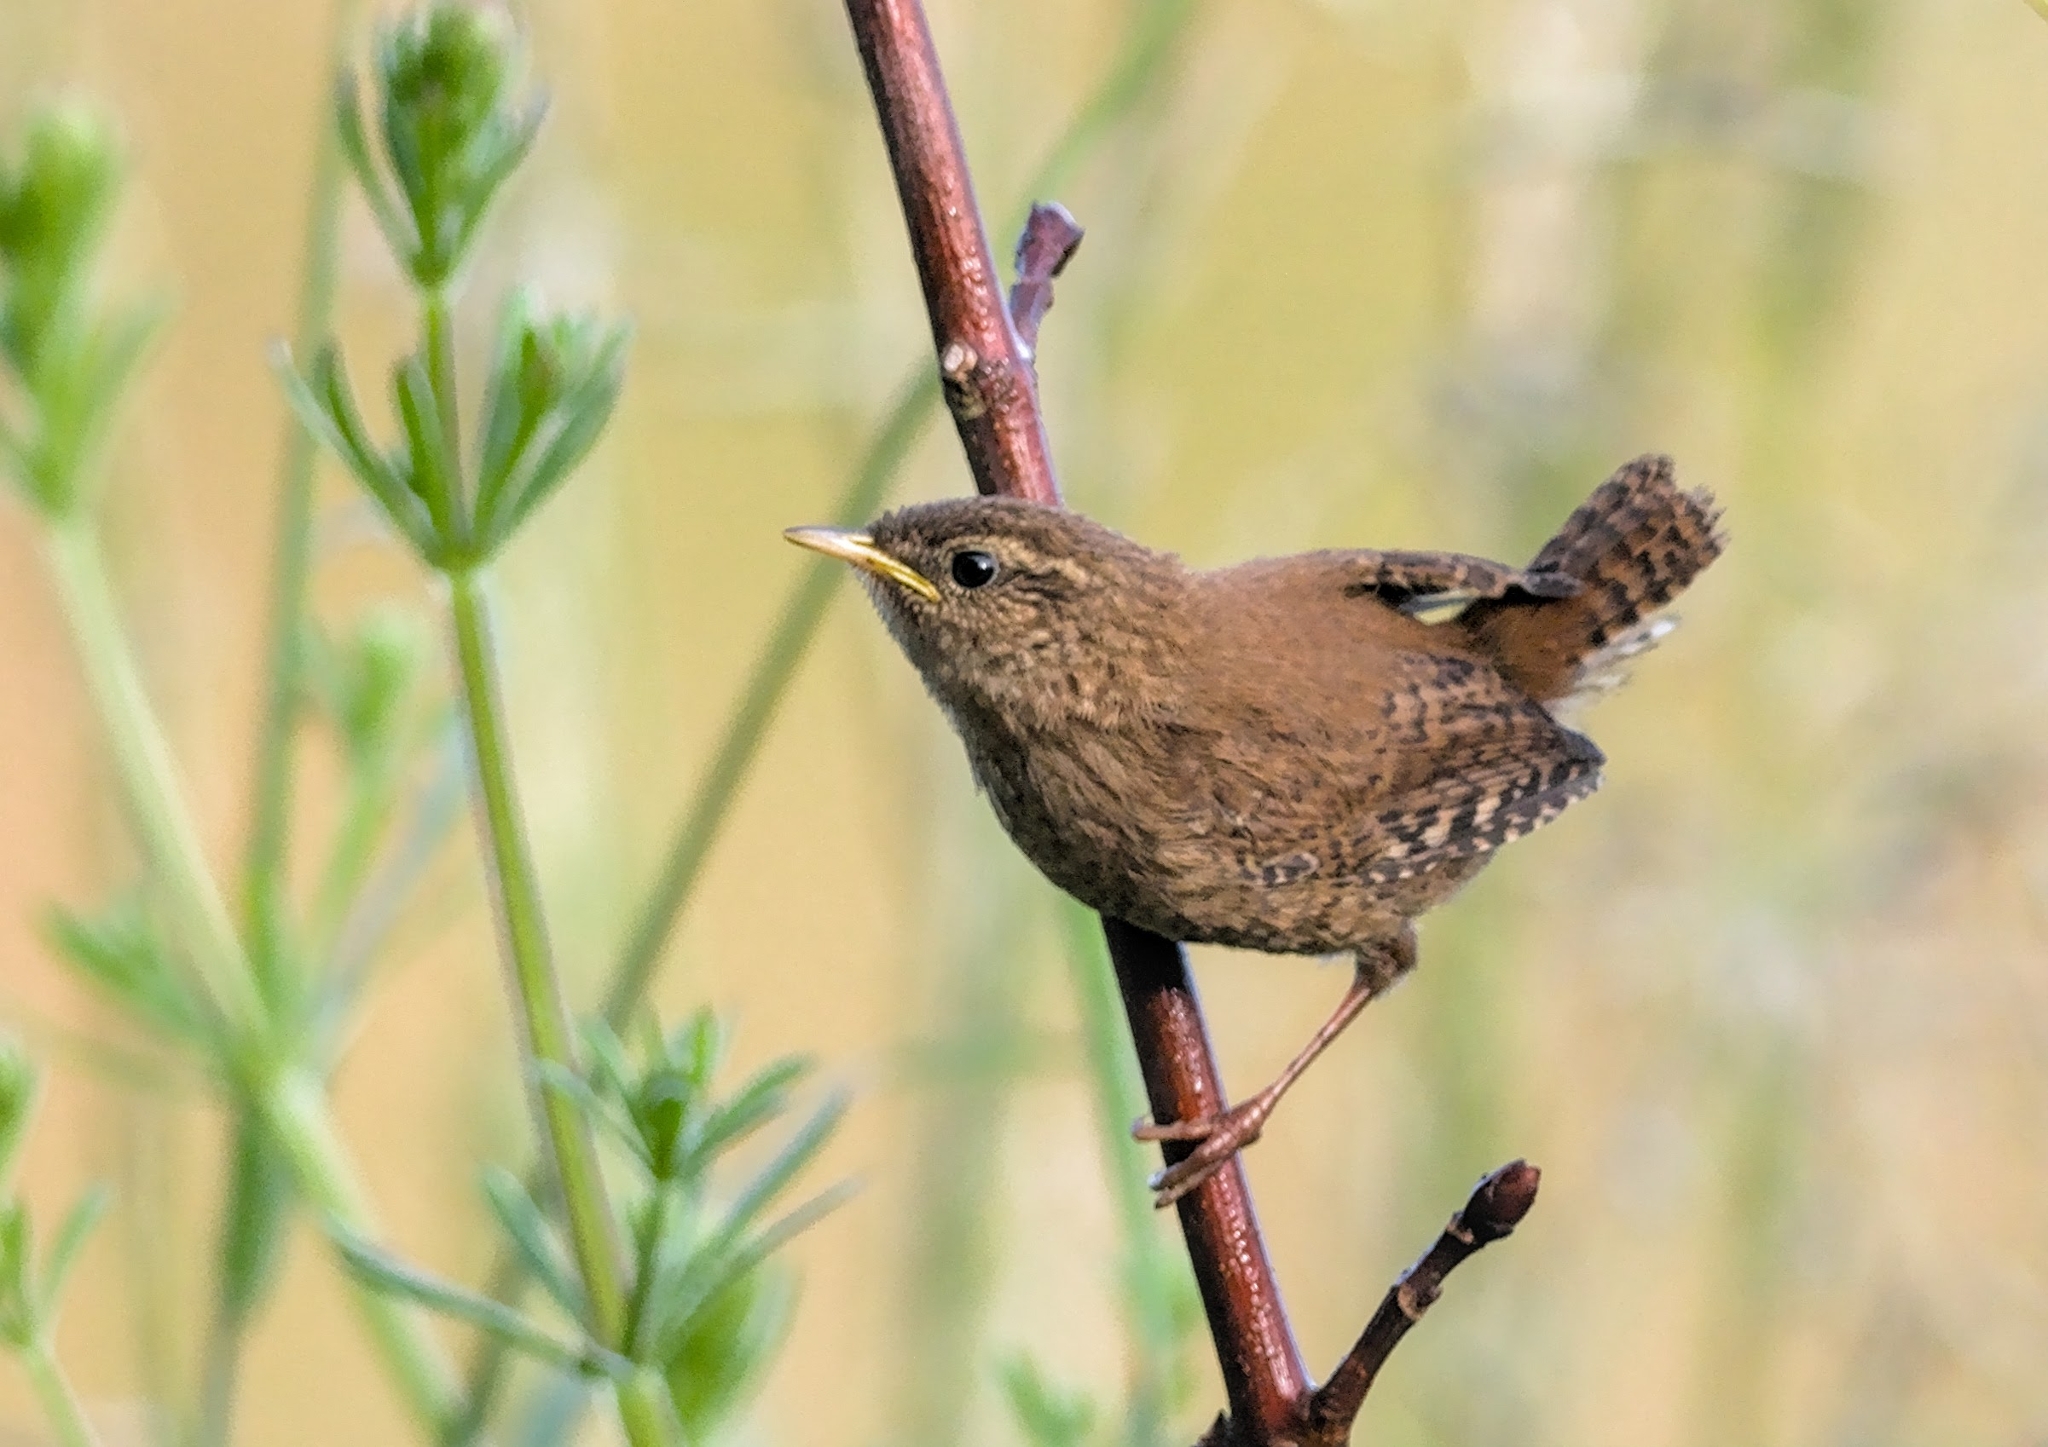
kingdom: Animalia
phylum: Chordata
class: Aves
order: Passeriformes
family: Troglodytidae
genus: Troglodytes
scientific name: Troglodytes troglodytes
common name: Eurasian wren
